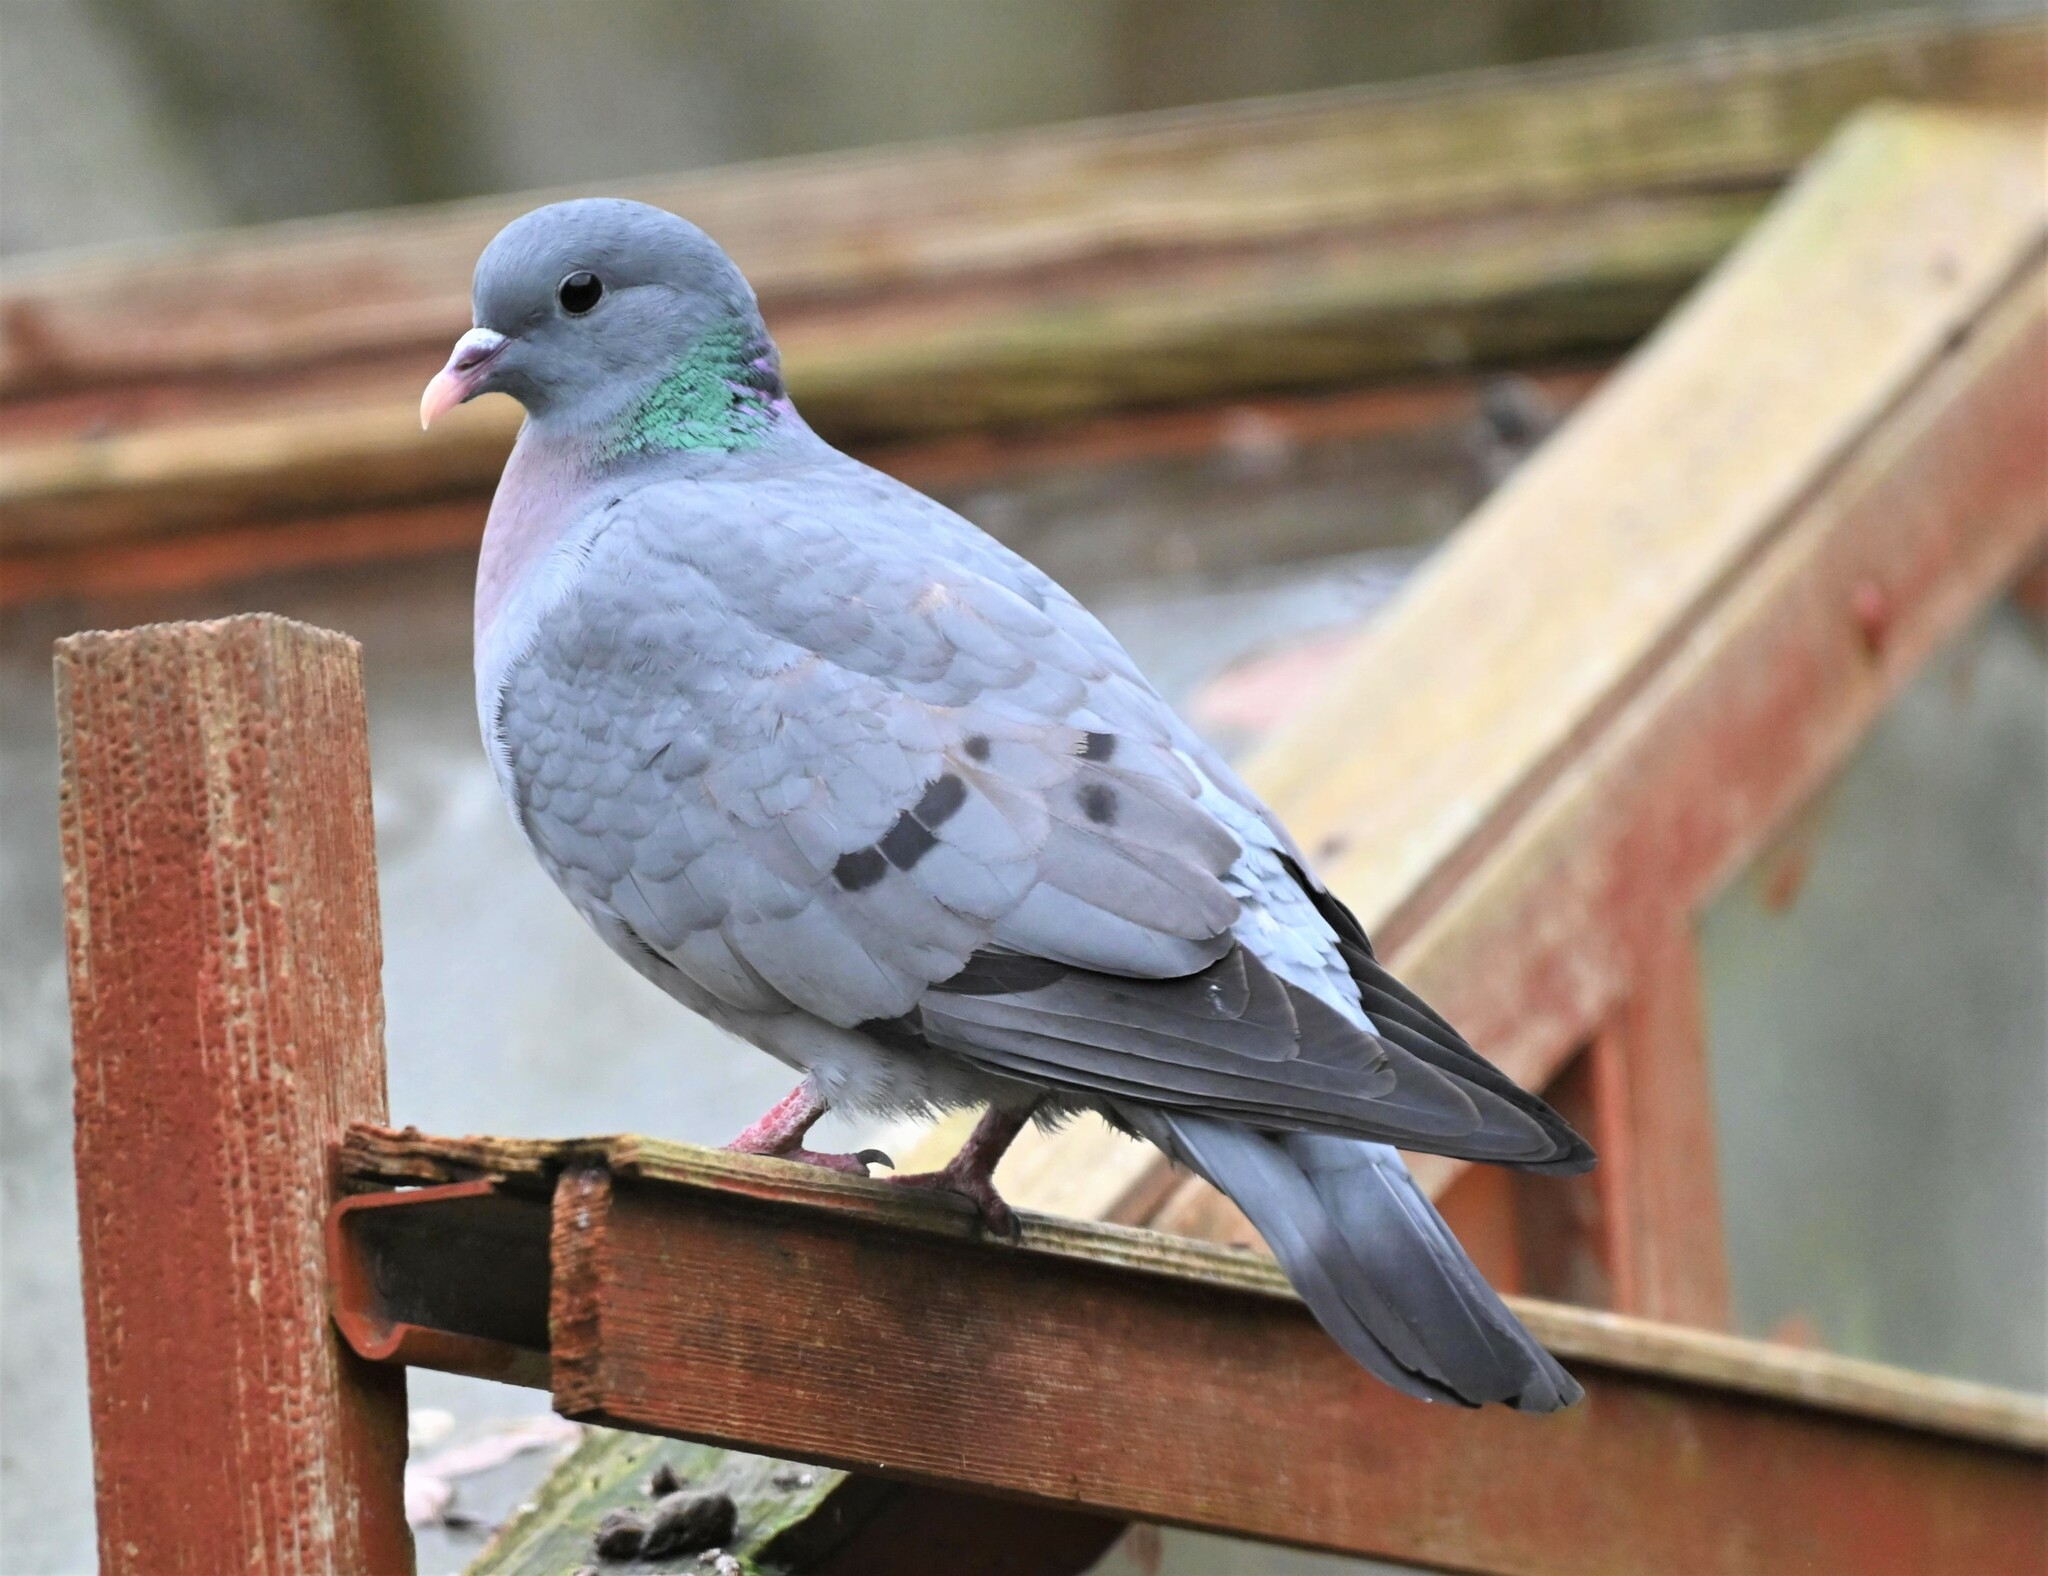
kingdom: Animalia
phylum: Chordata
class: Aves
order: Columbiformes
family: Columbidae
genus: Columba
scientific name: Columba oenas
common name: Stock dove
